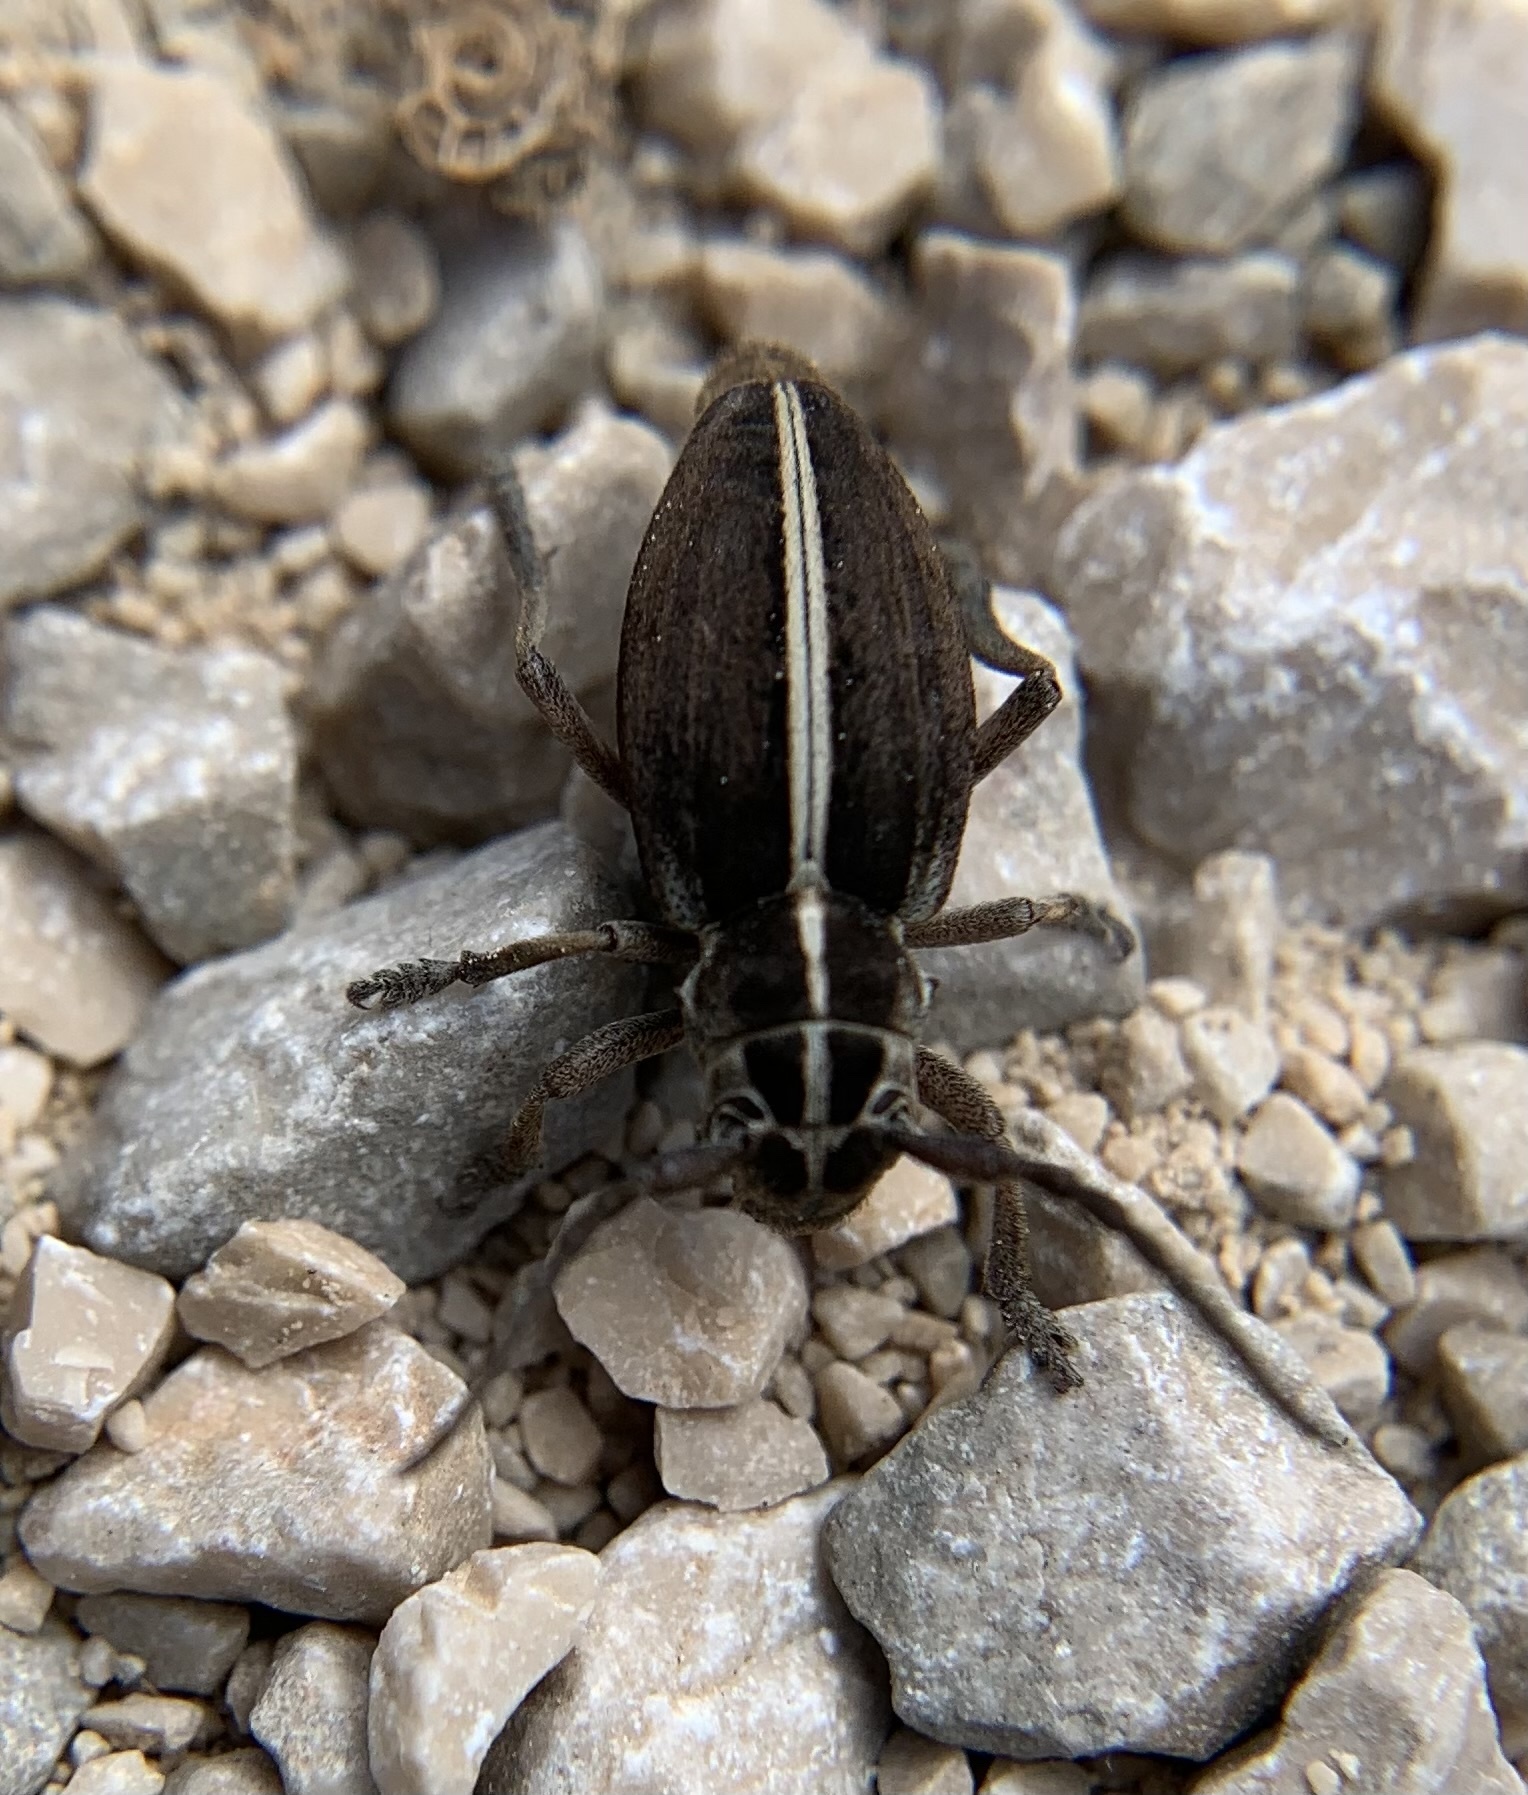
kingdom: Animalia
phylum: Arthropoda
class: Insecta
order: Coleoptera
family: Cerambycidae
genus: Dorcadion
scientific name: Dorcadion arenarium
